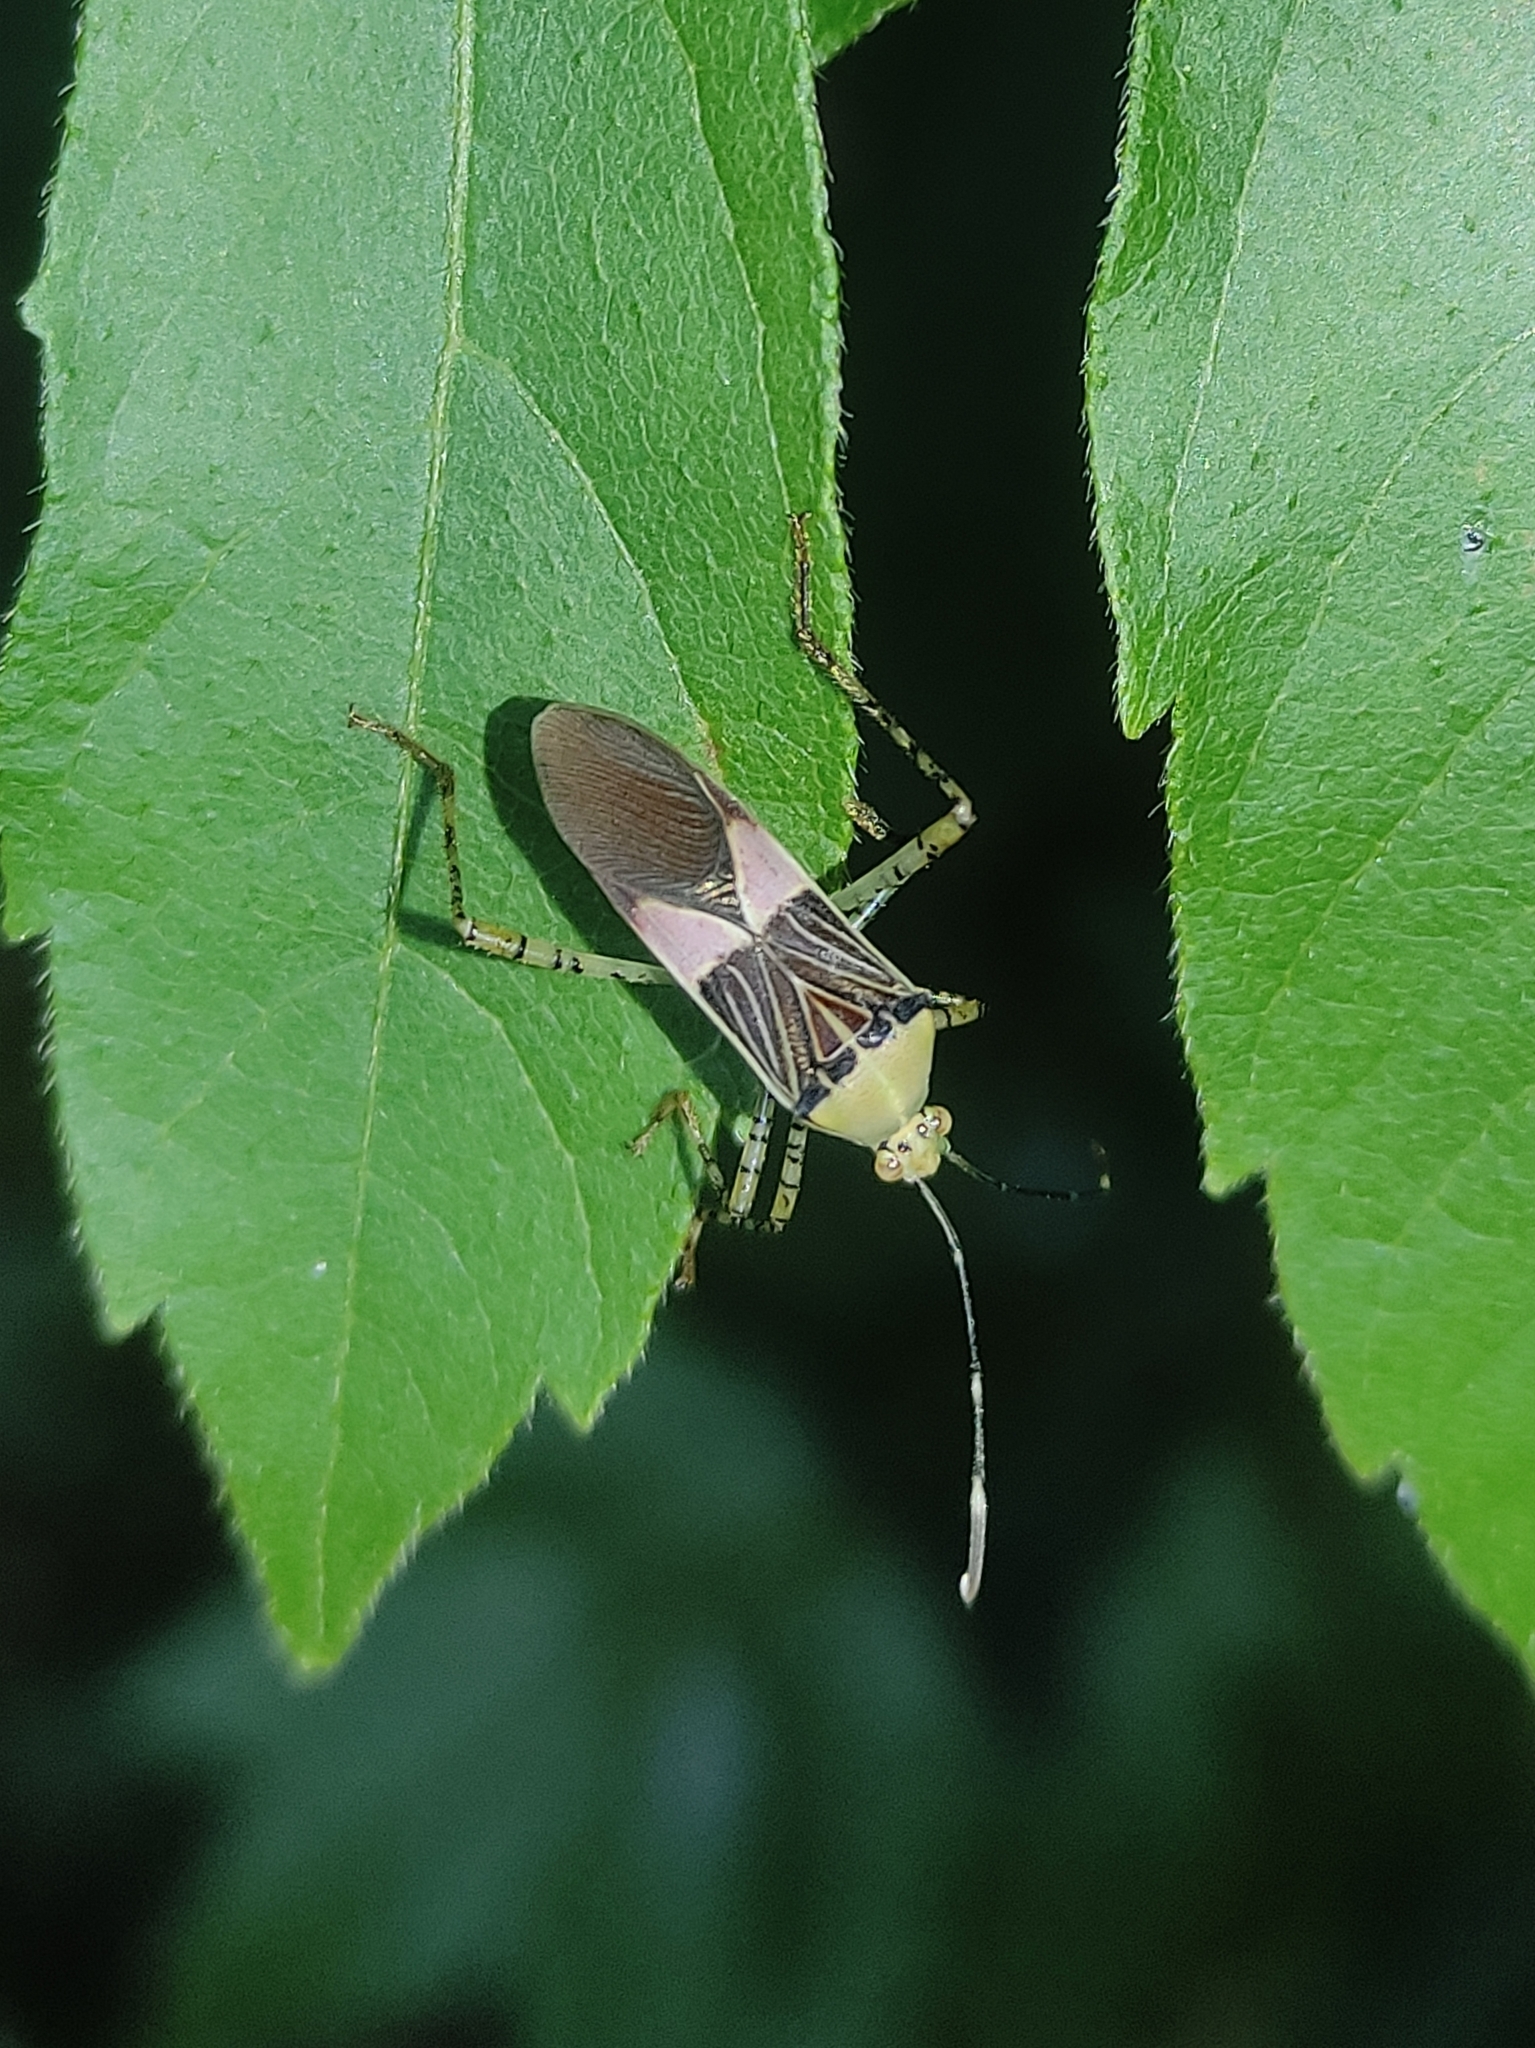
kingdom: Animalia
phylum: Arthropoda
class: Insecta
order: Hemiptera
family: Coreidae
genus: Hypselonotus
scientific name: Hypselonotus fulvus
